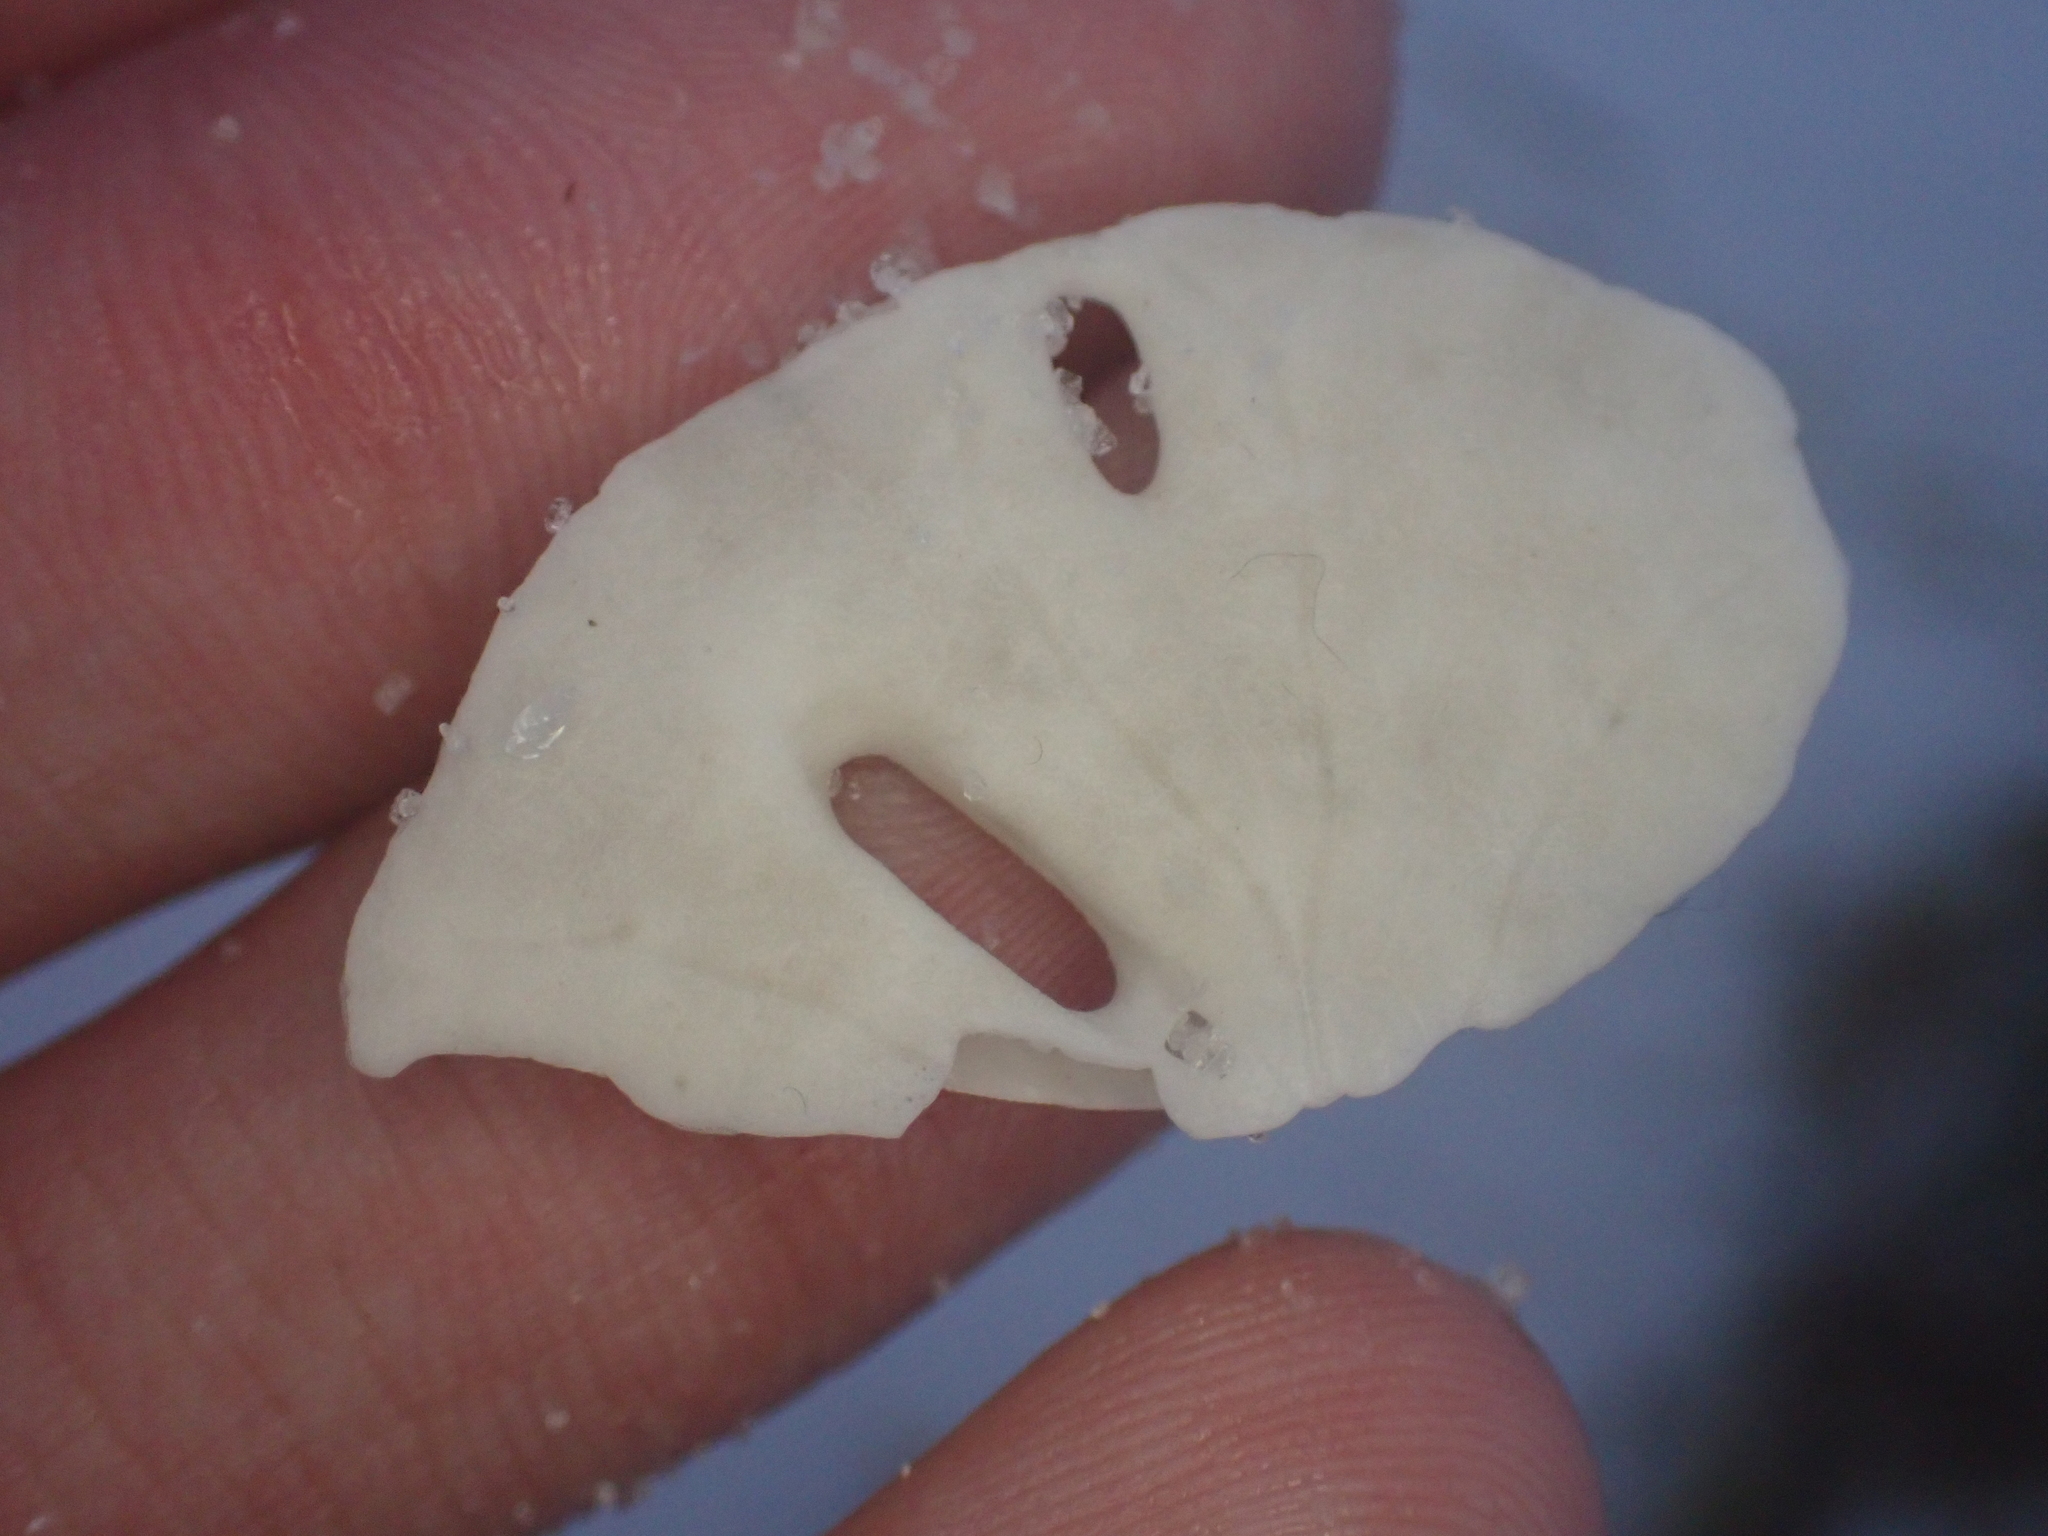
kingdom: Animalia
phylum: Echinodermata
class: Echinoidea
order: Echinolampadacea
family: Mellitidae
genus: Mellita
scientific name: Mellita quinquiesperforata
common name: Sand dollar
